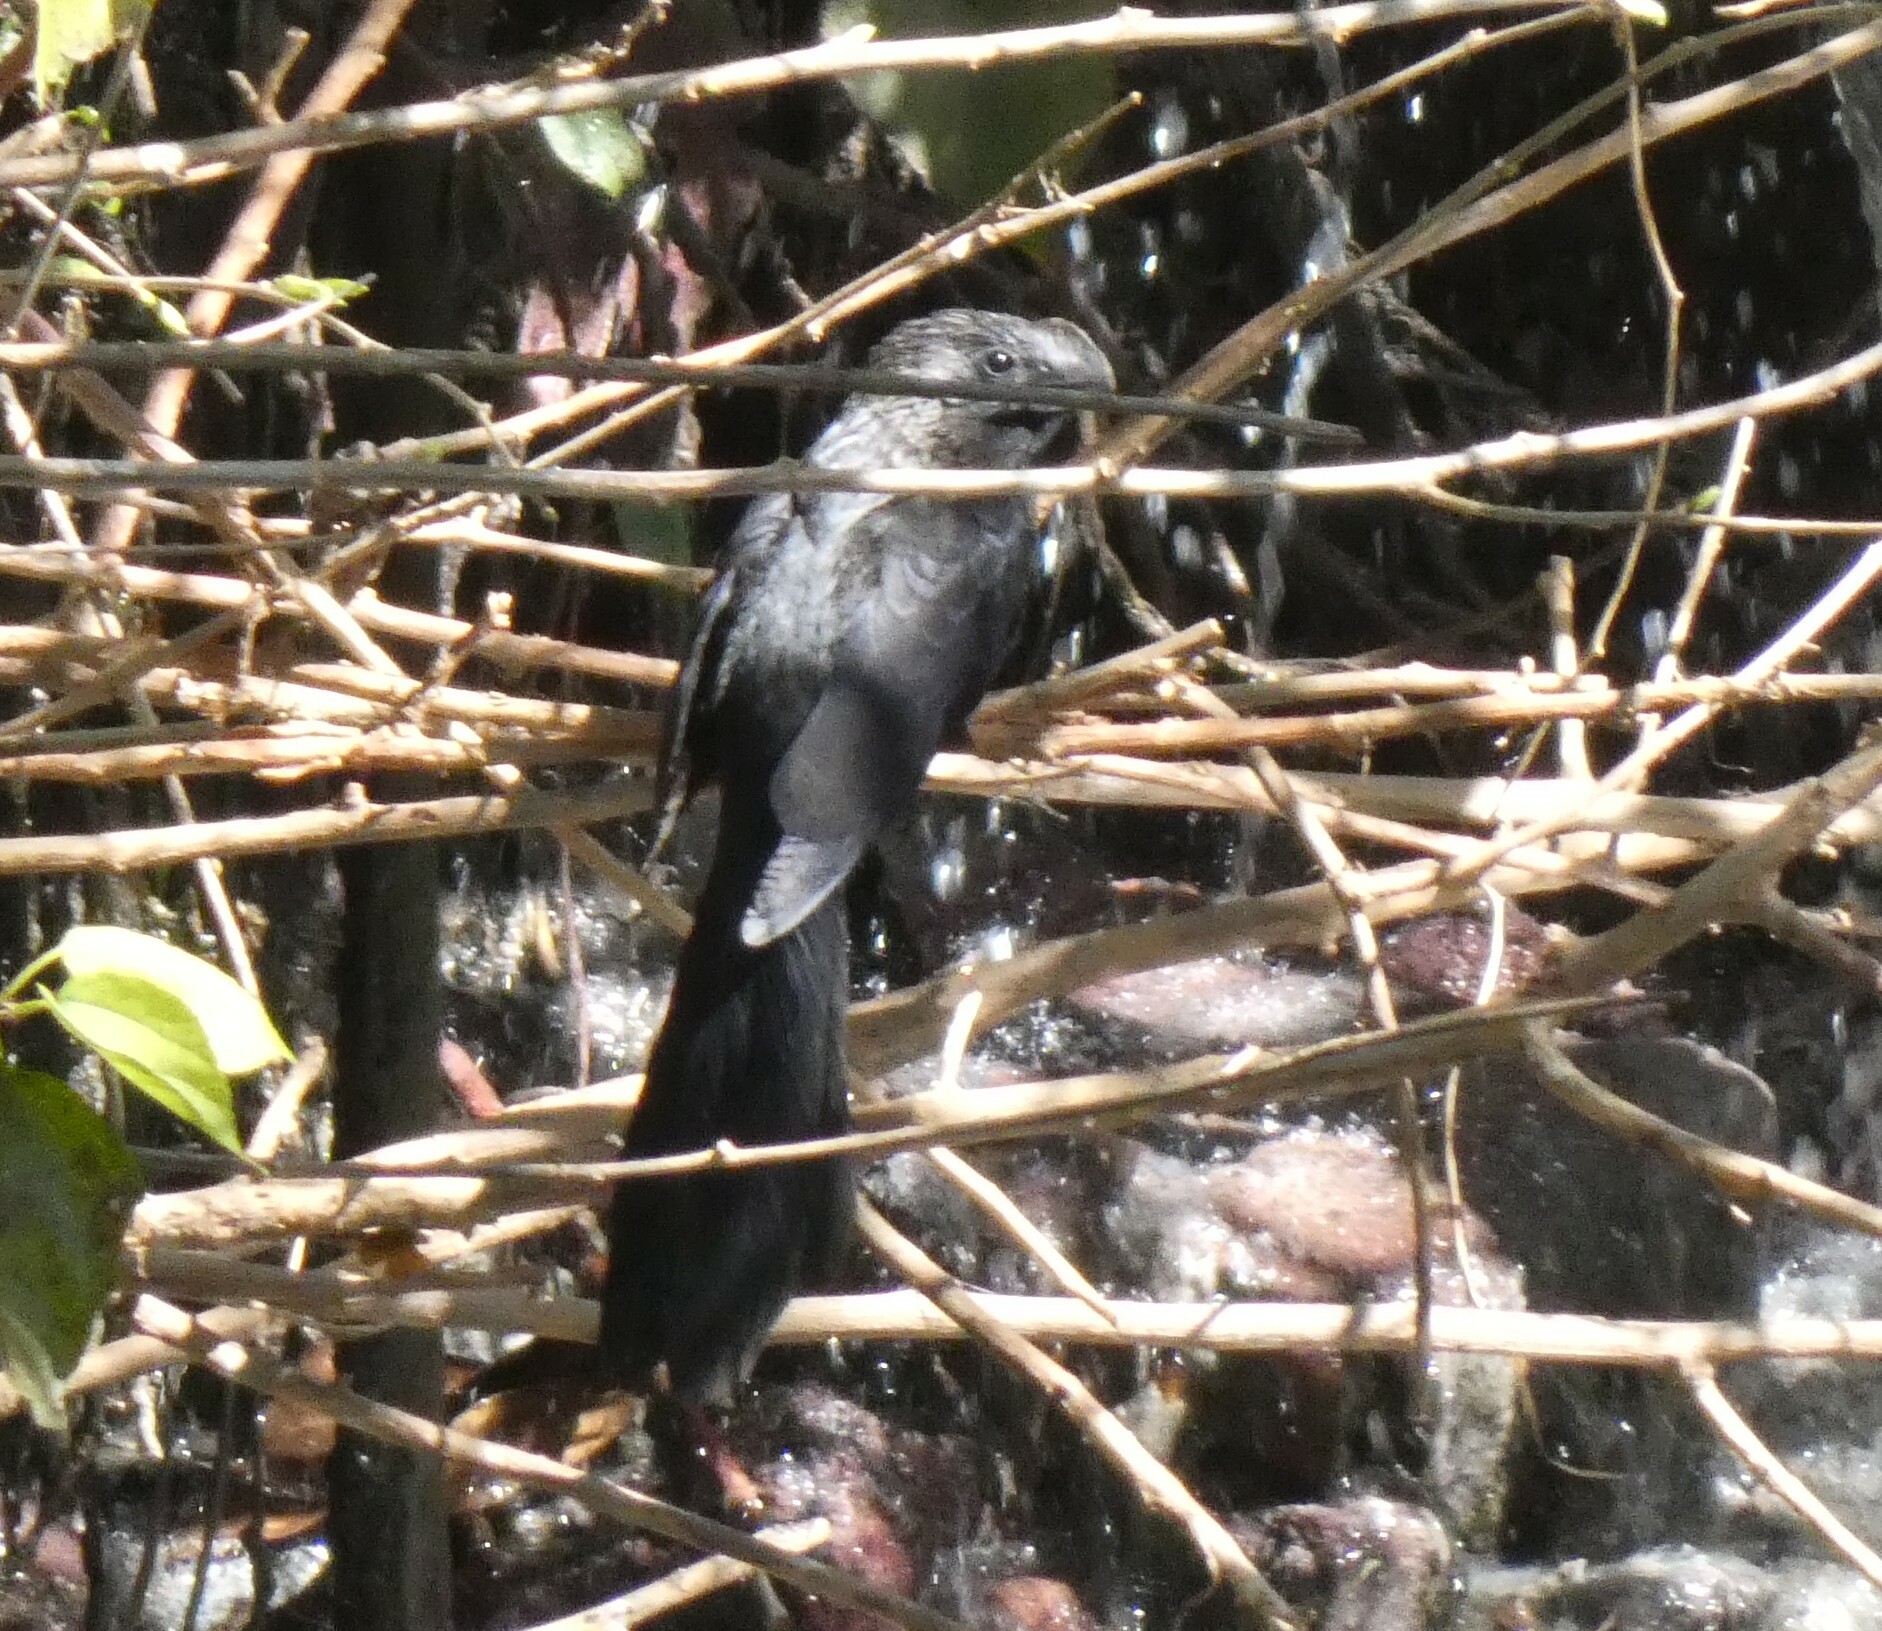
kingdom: Animalia
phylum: Chordata
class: Aves
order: Cuculiformes
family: Cuculidae
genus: Crotophaga
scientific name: Crotophaga ani
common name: Smooth-billed ani
